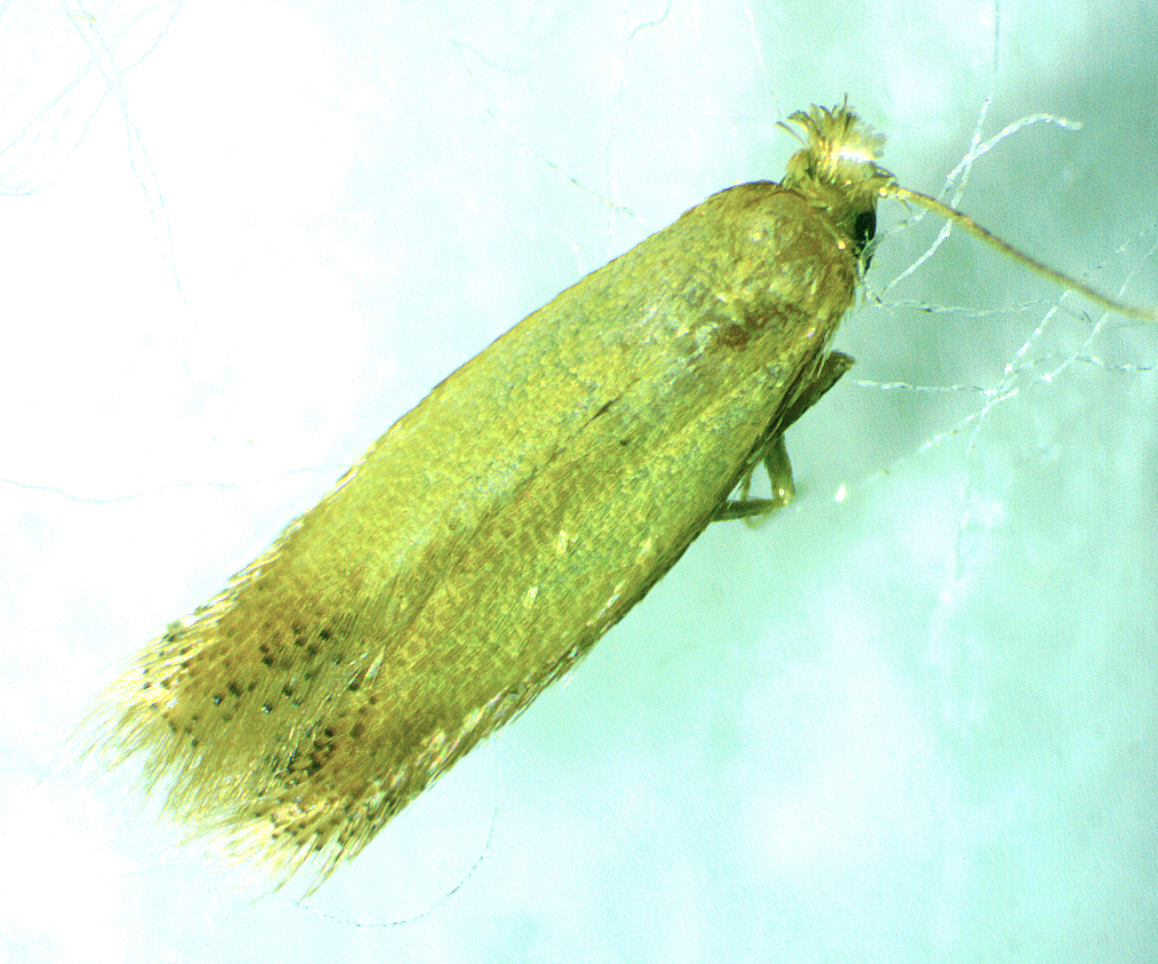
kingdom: Animalia
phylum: Arthropoda
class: Insecta
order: Lepidoptera
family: Tischeriidae
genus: Coptotriche
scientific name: Coptotriche citrinipennella
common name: The golden sweeper
